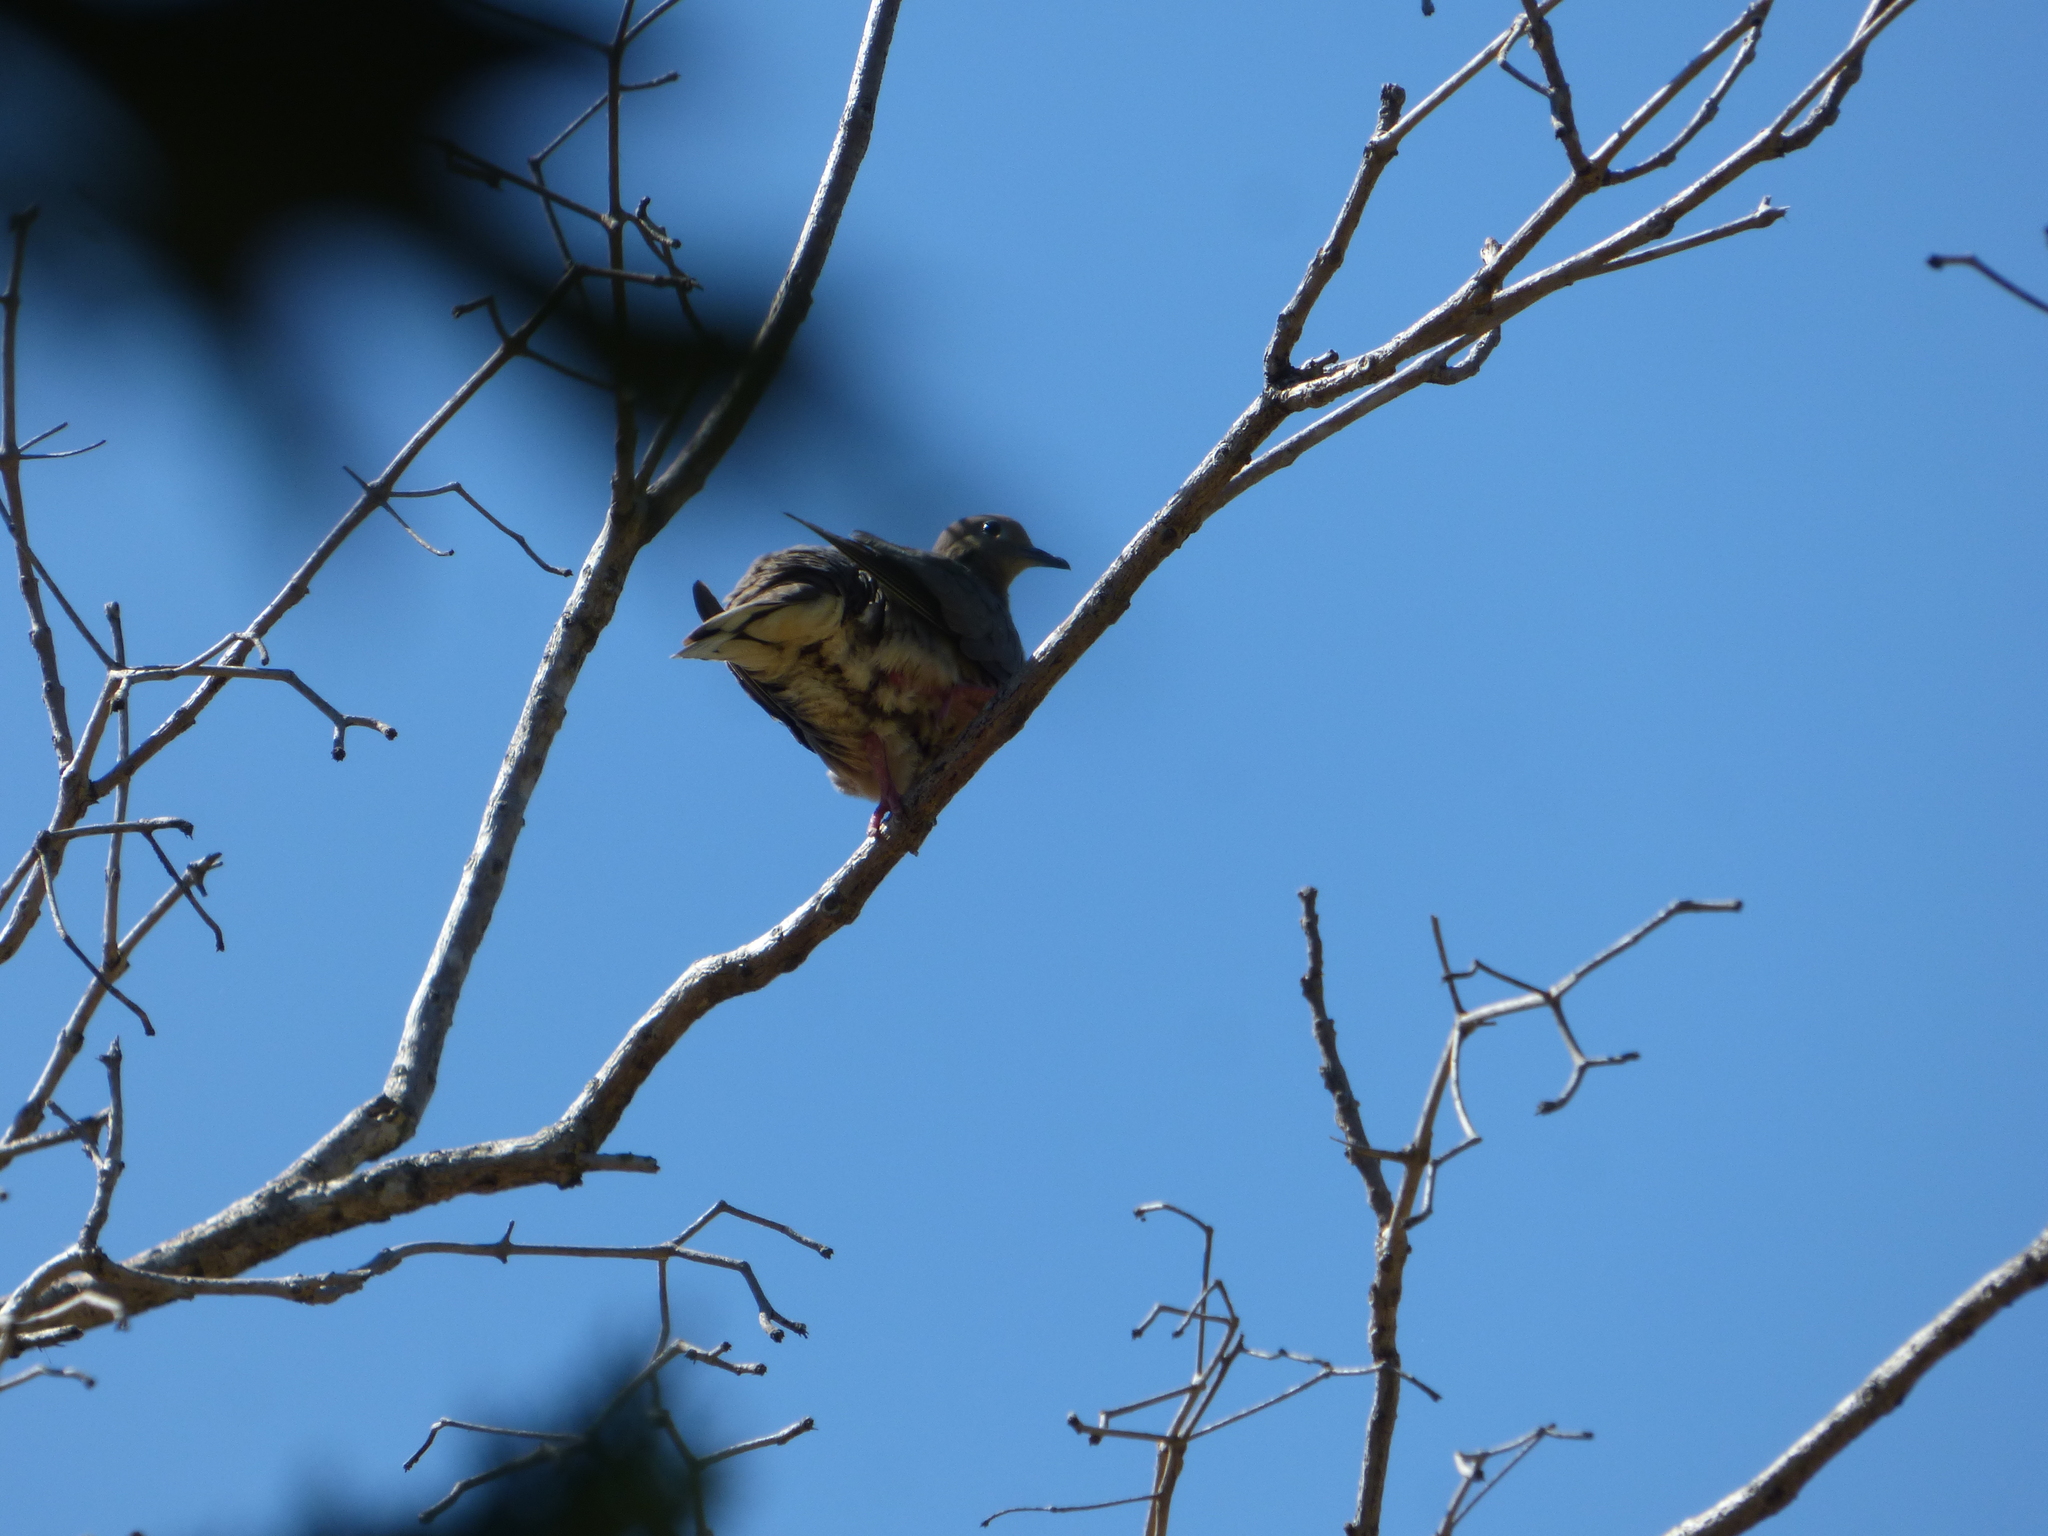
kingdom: Animalia
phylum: Chordata
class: Aves
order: Columbiformes
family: Columbidae
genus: Zenaida
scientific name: Zenaida auriculata
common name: Eared dove
